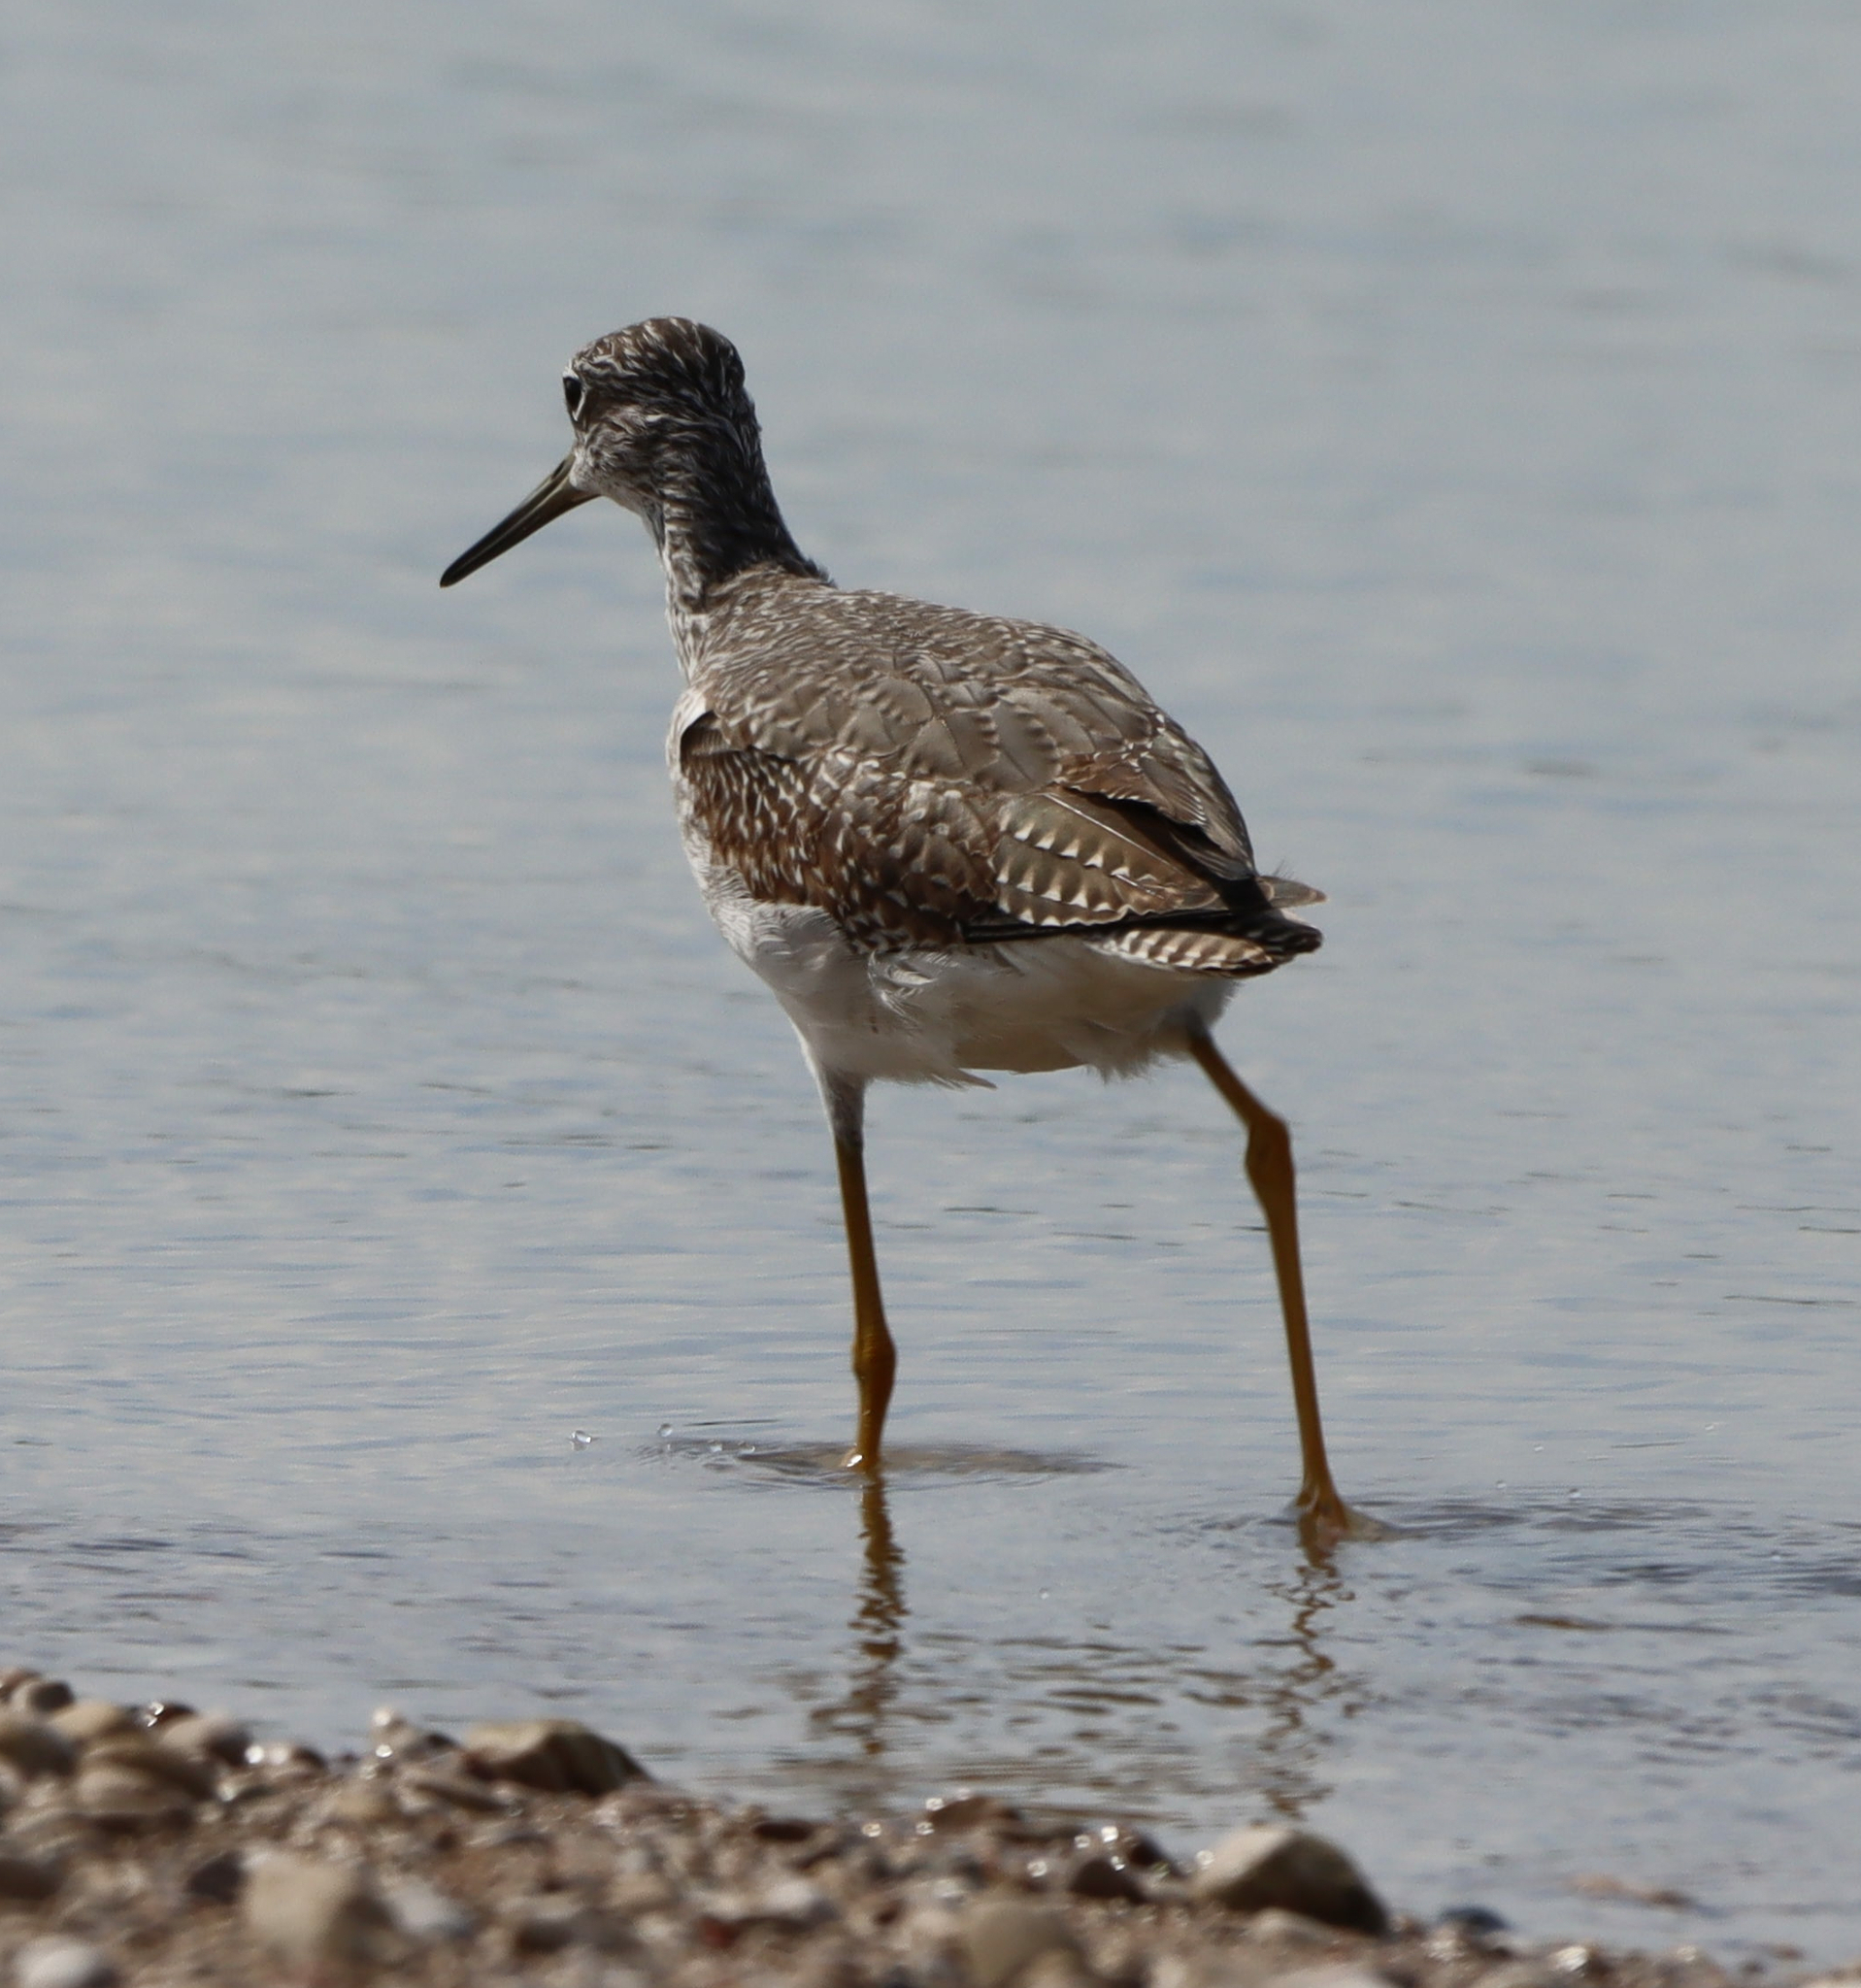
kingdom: Animalia
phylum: Chordata
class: Aves
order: Charadriiformes
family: Scolopacidae
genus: Tringa
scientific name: Tringa melanoleuca
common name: Greater yellowlegs
